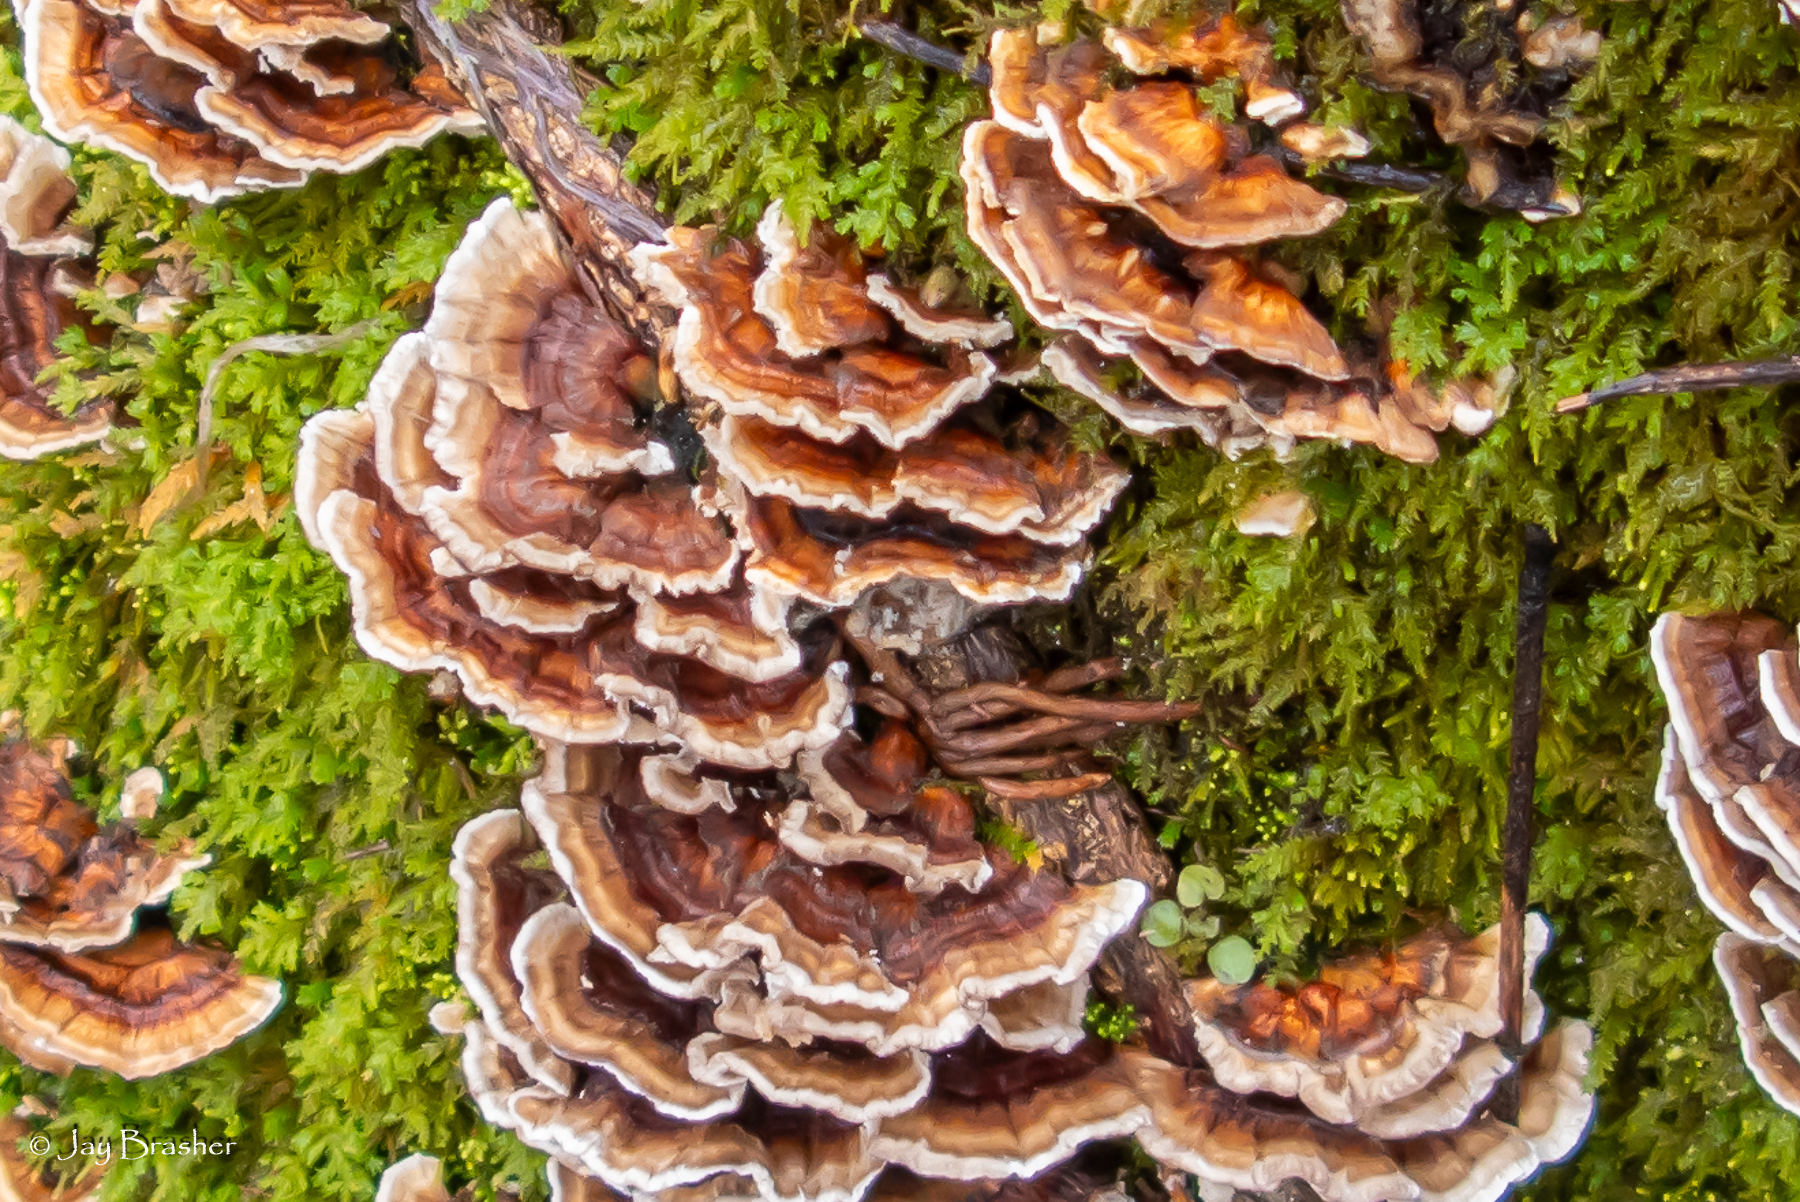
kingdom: Fungi
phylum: Basidiomycota
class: Agaricomycetes
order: Polyporales
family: Polyporaceae
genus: Trametes
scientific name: Trametes versicolor
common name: Turkeytail
